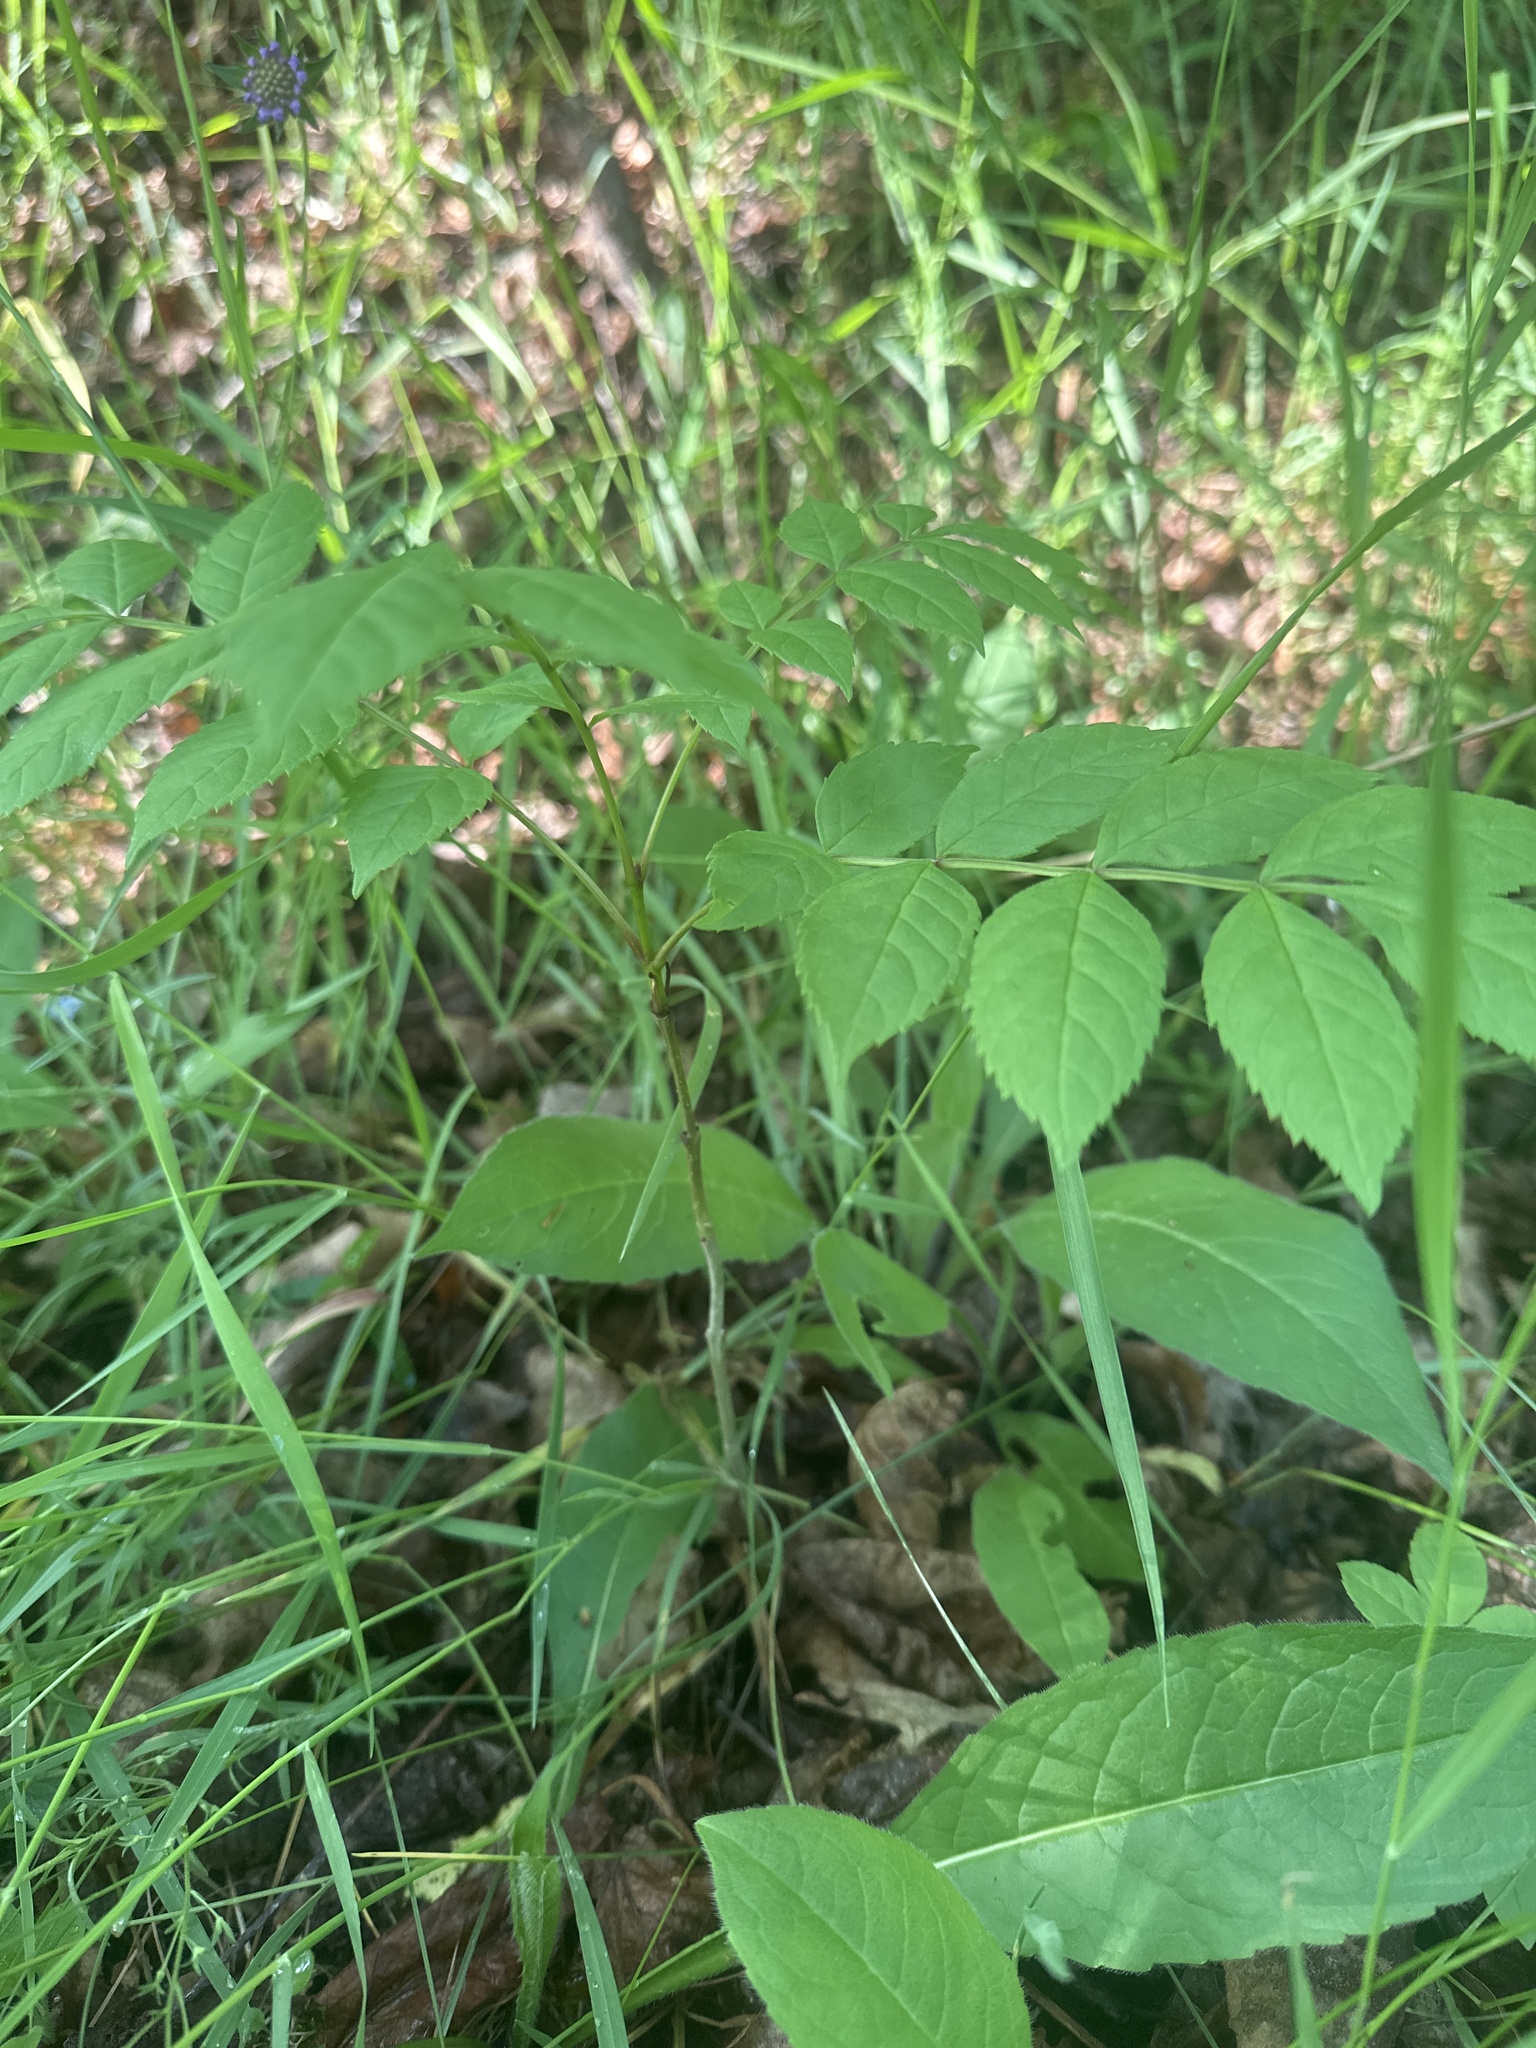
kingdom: Plantae
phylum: Tracheophyta
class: Magnoliopsida
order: Lamiales
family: Oleaceae
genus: Fraxinus
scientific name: Fraxinus excelsior
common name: European ash
